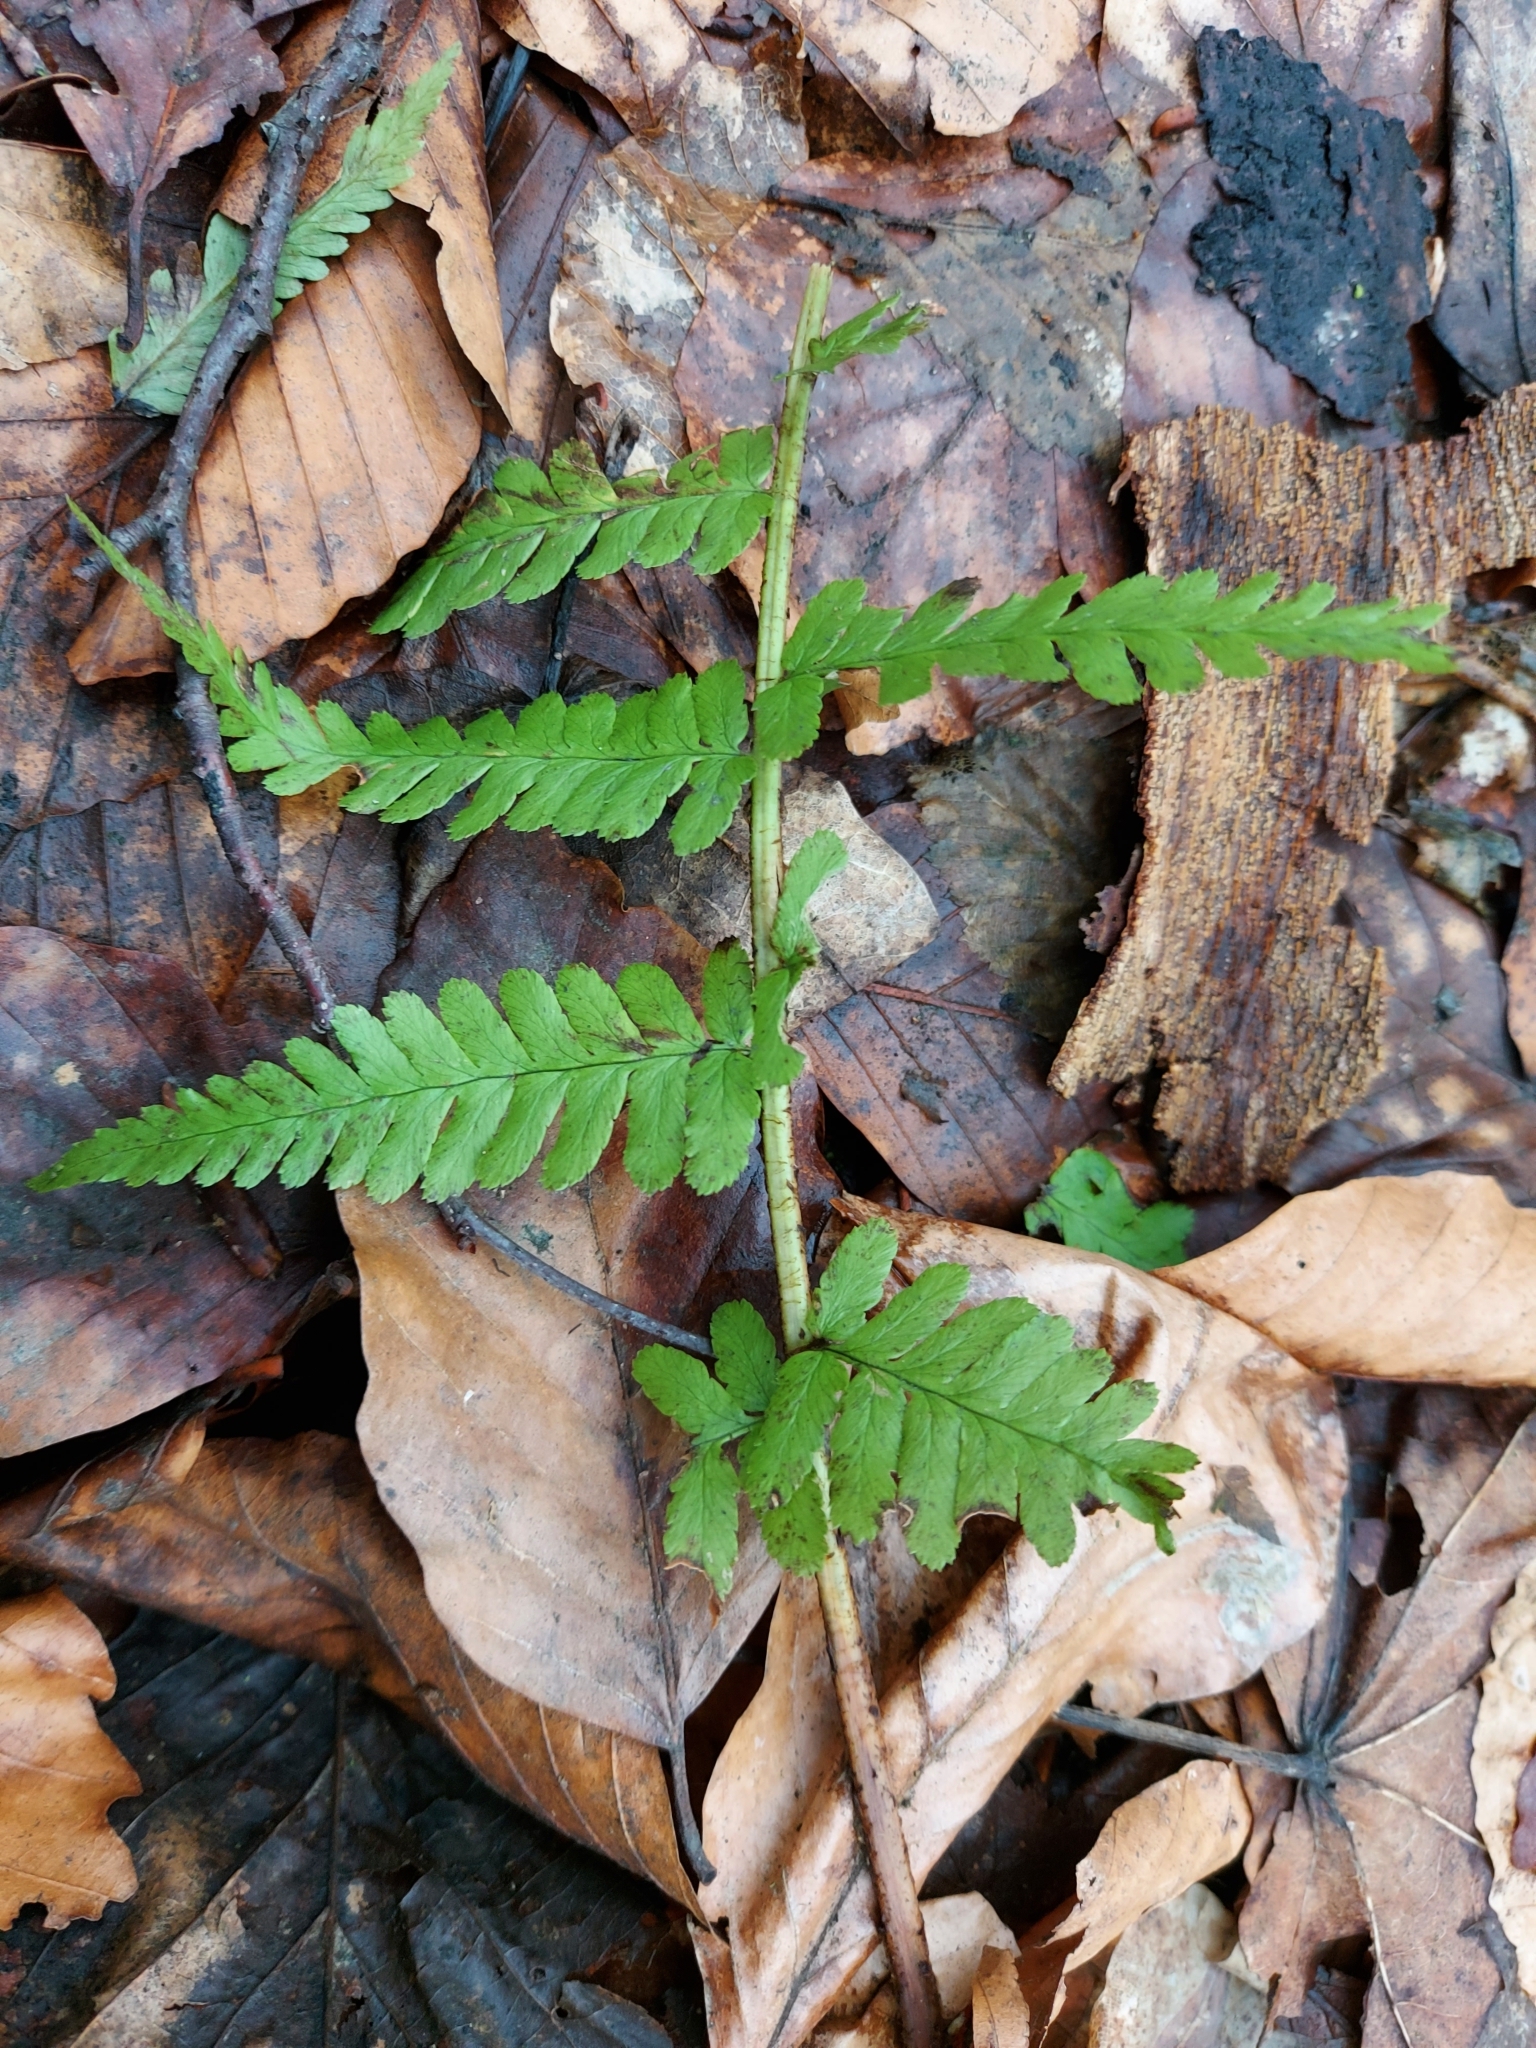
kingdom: Plantae
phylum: Tracheophyta
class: Polypodiopsida
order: Polypodiales
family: Dryopteridaceae
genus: Dryopteris
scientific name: Dryopteris filix-mas
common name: Male fern
